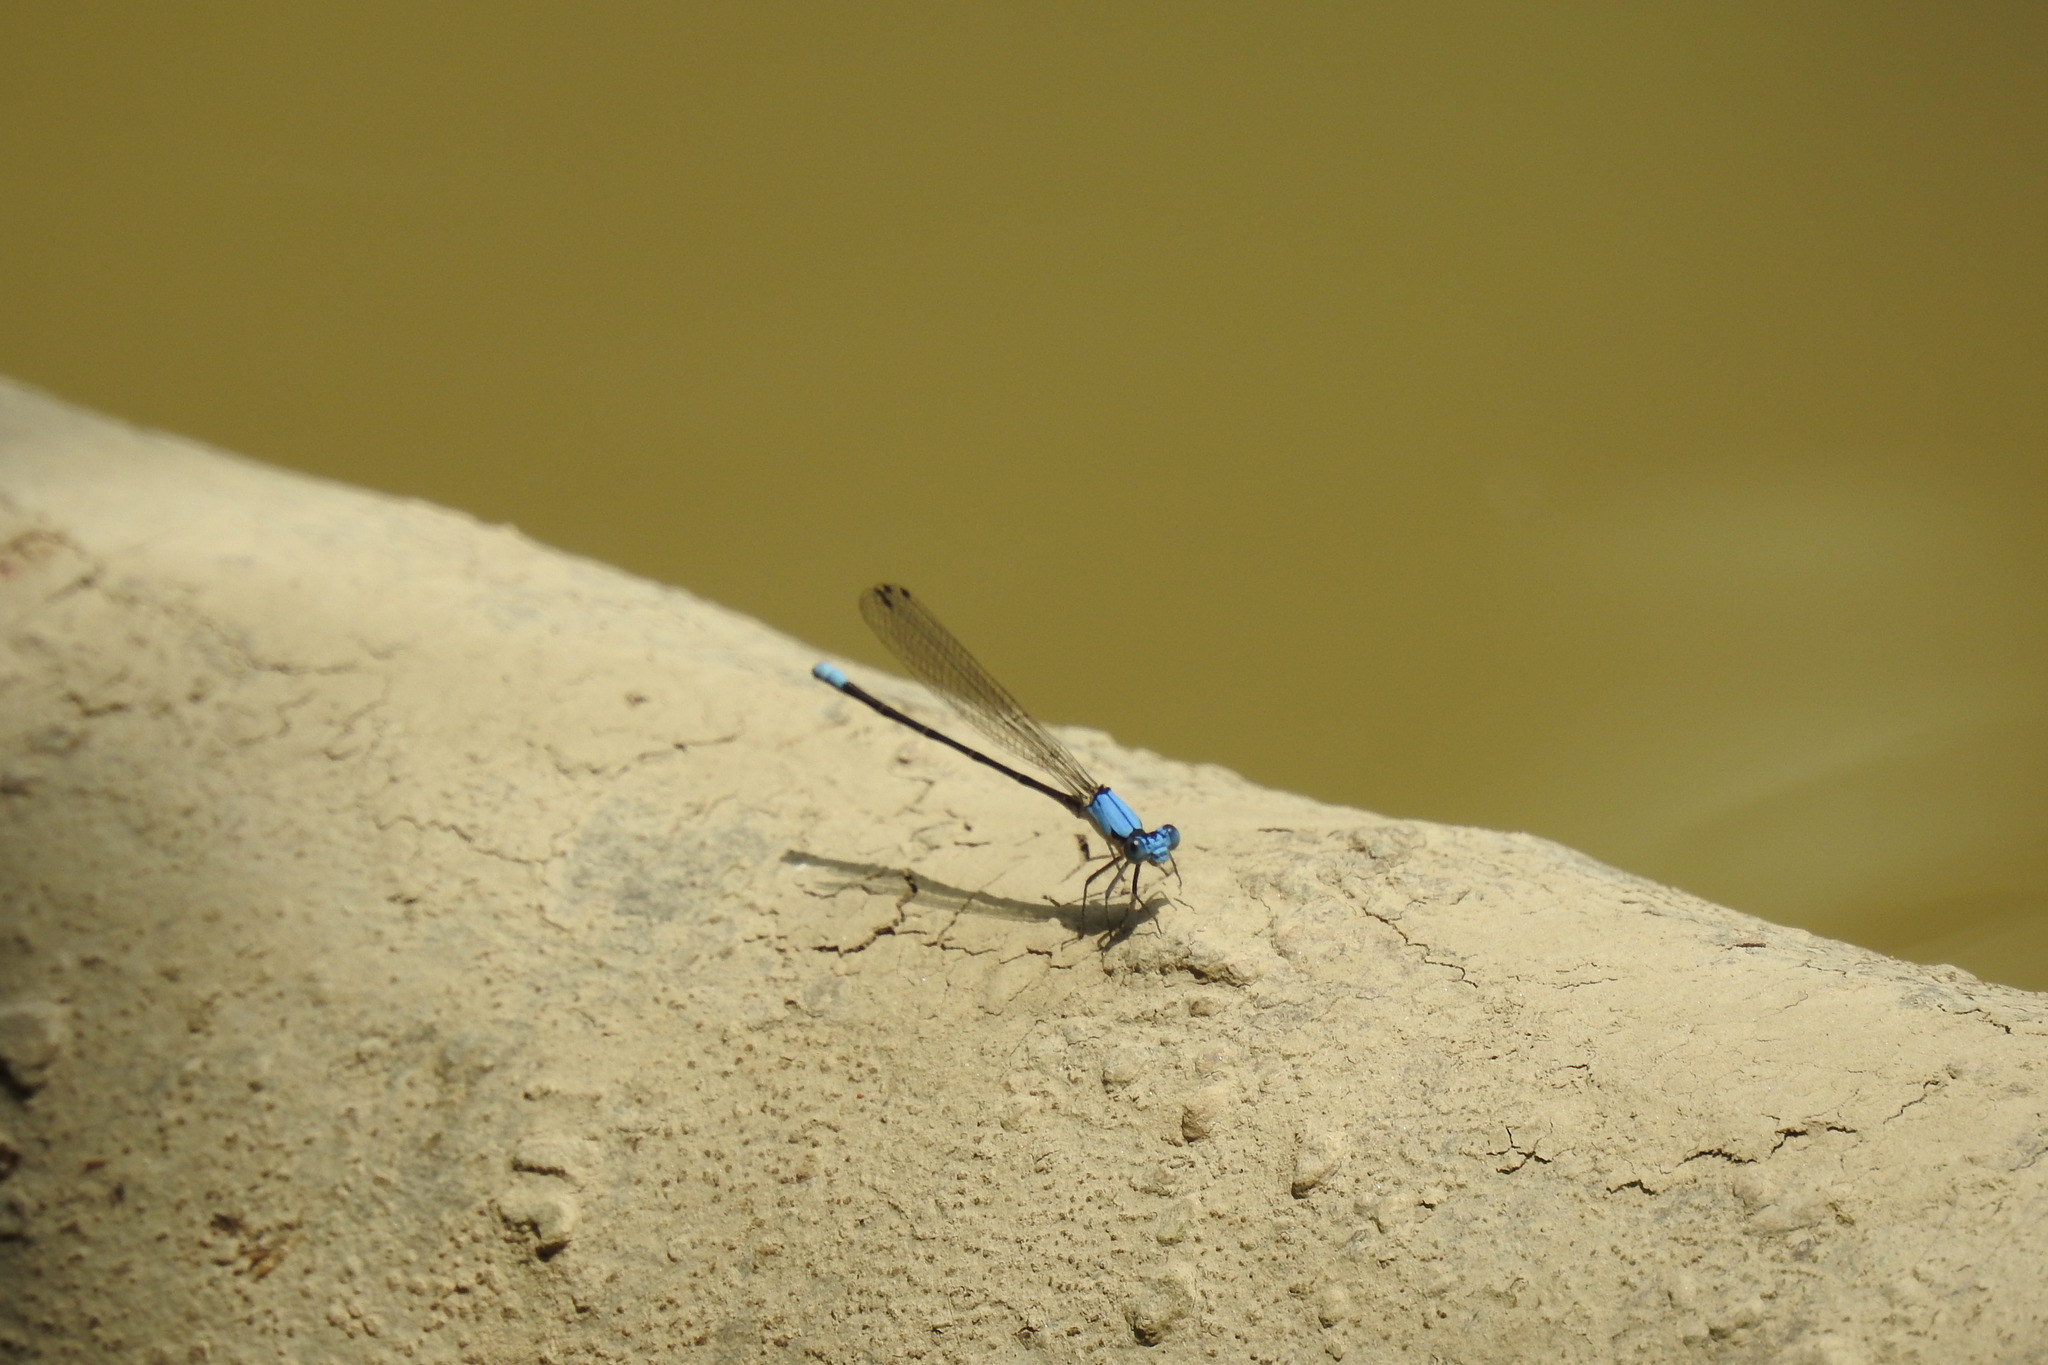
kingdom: Animalia
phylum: Arthropoda
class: Insecta
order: Odonata
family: Coenagrionidae
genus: Argia
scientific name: Argia apicalis
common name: Blue-fronted dancer
